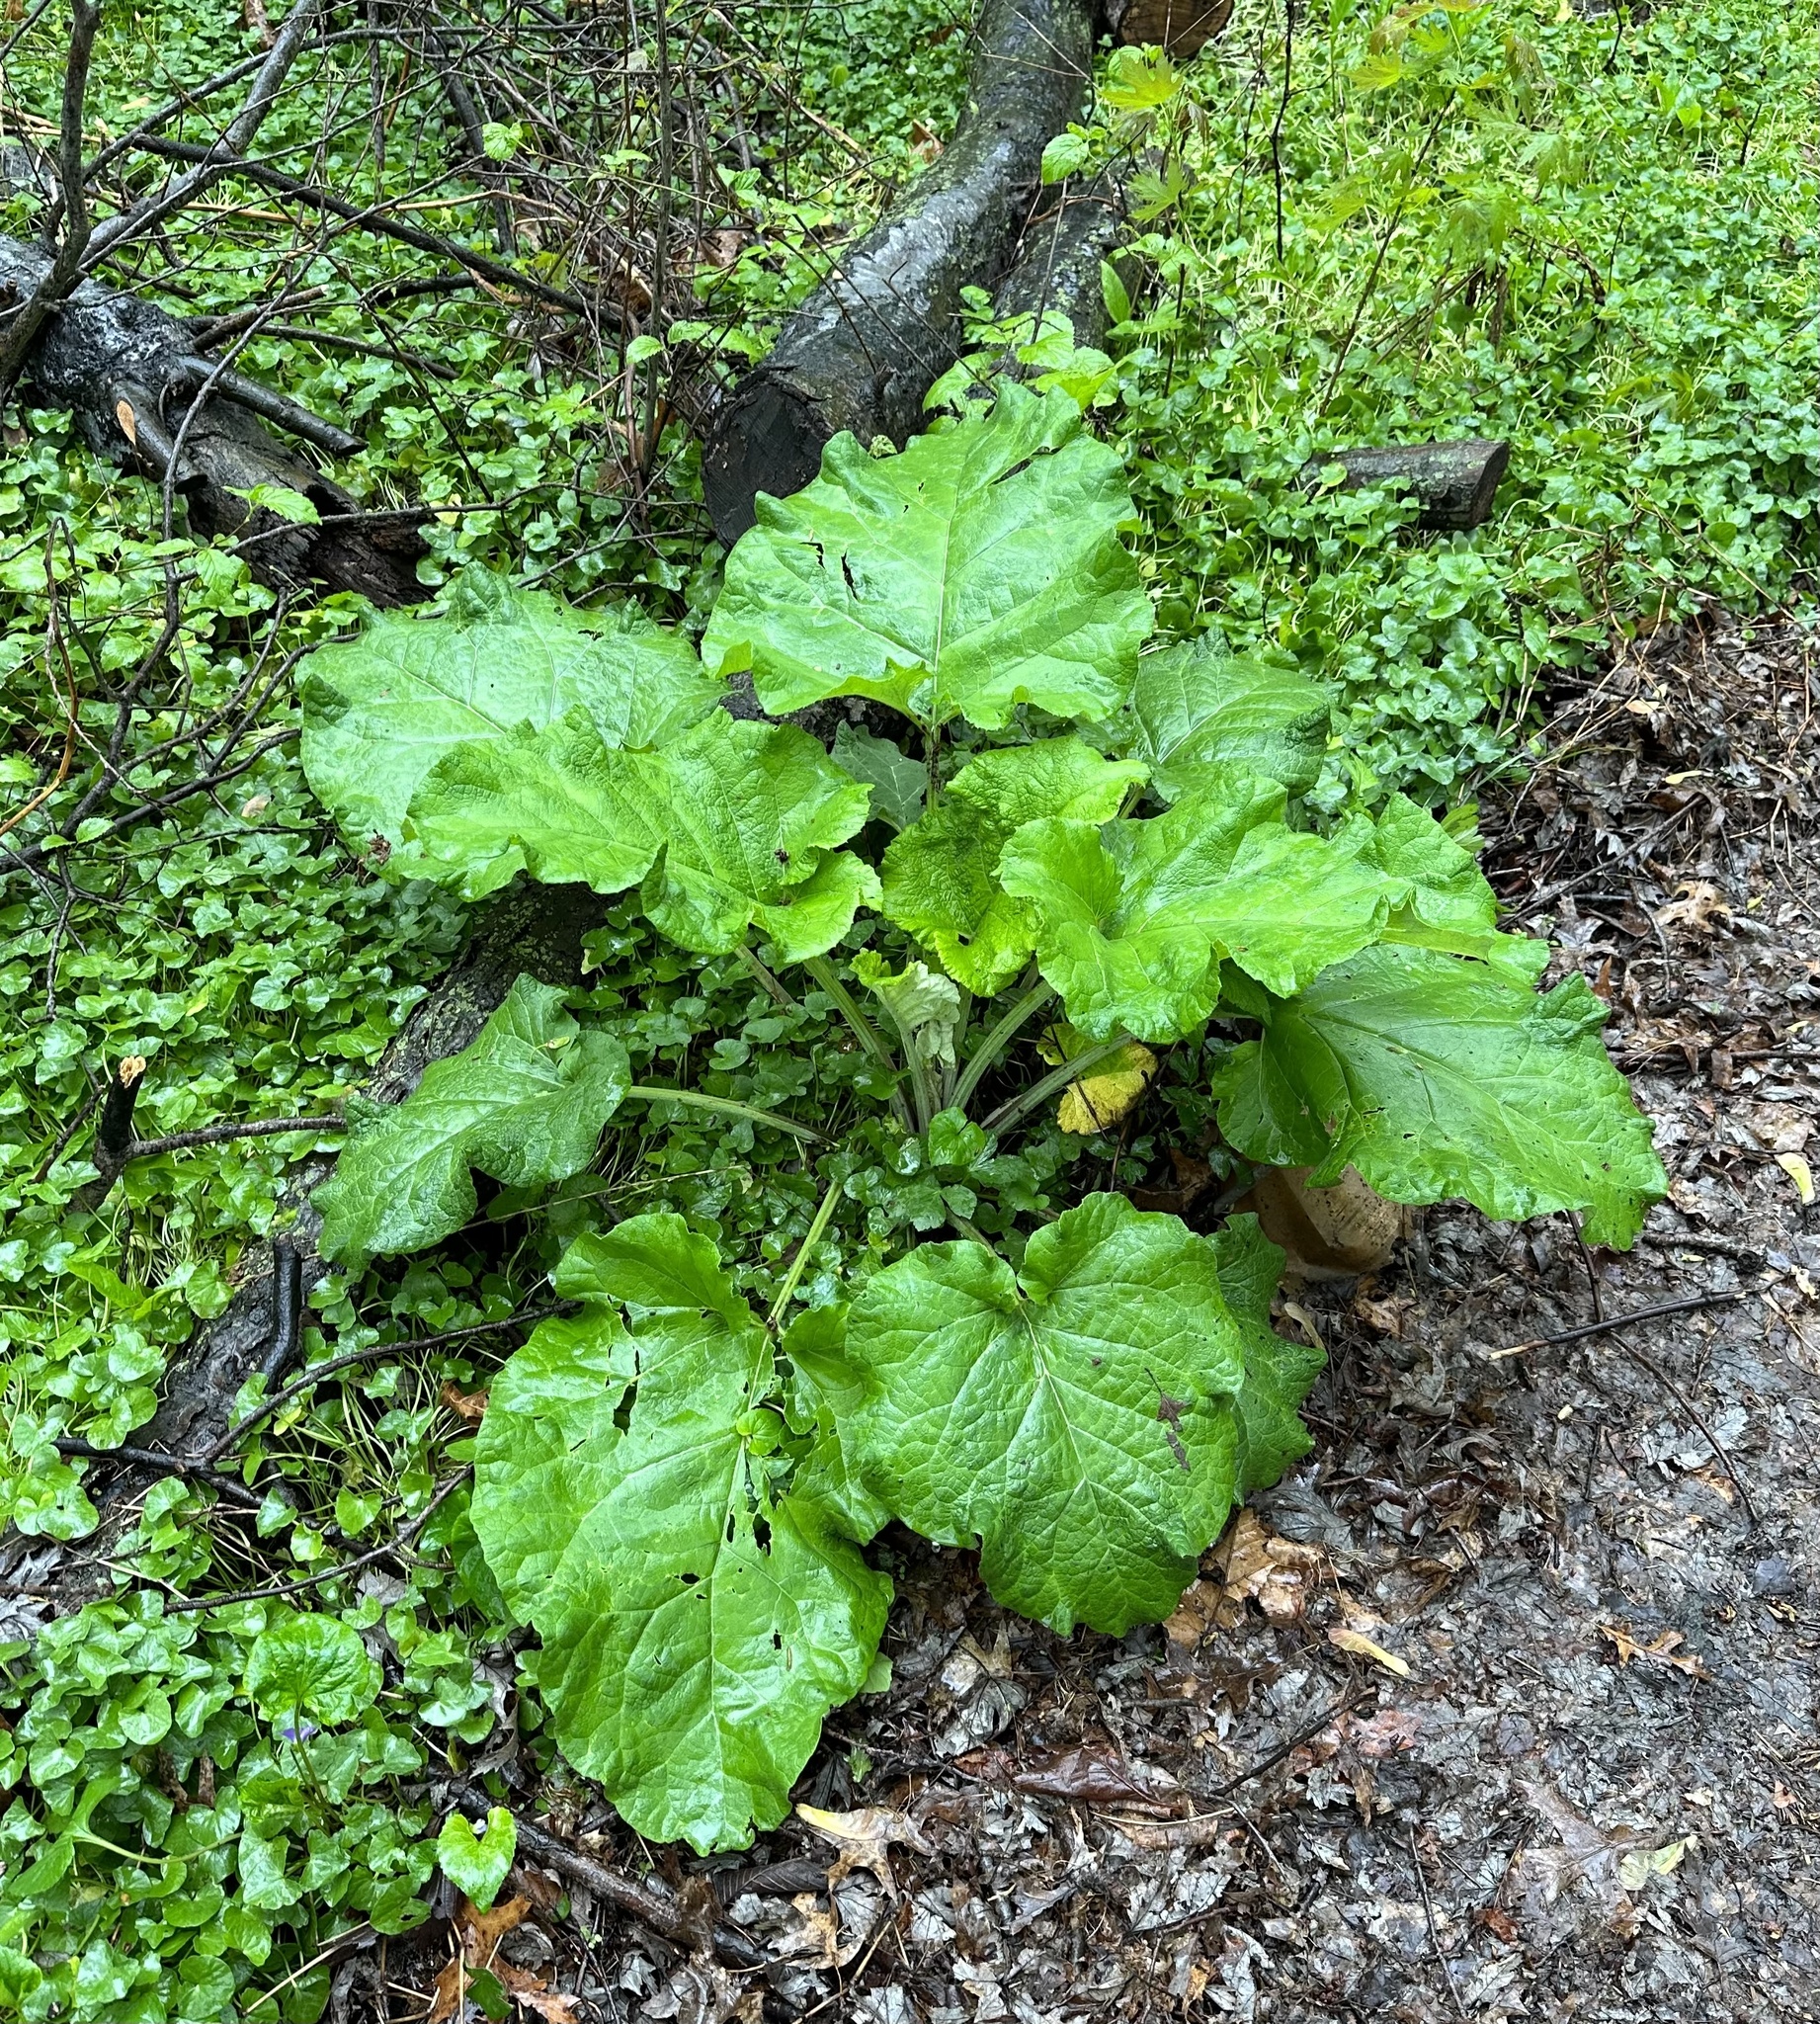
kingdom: Plantae
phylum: Tracheophyta
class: Magnoliopsida
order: Asterales
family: Asteraceae
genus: Arctium
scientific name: Arctium
